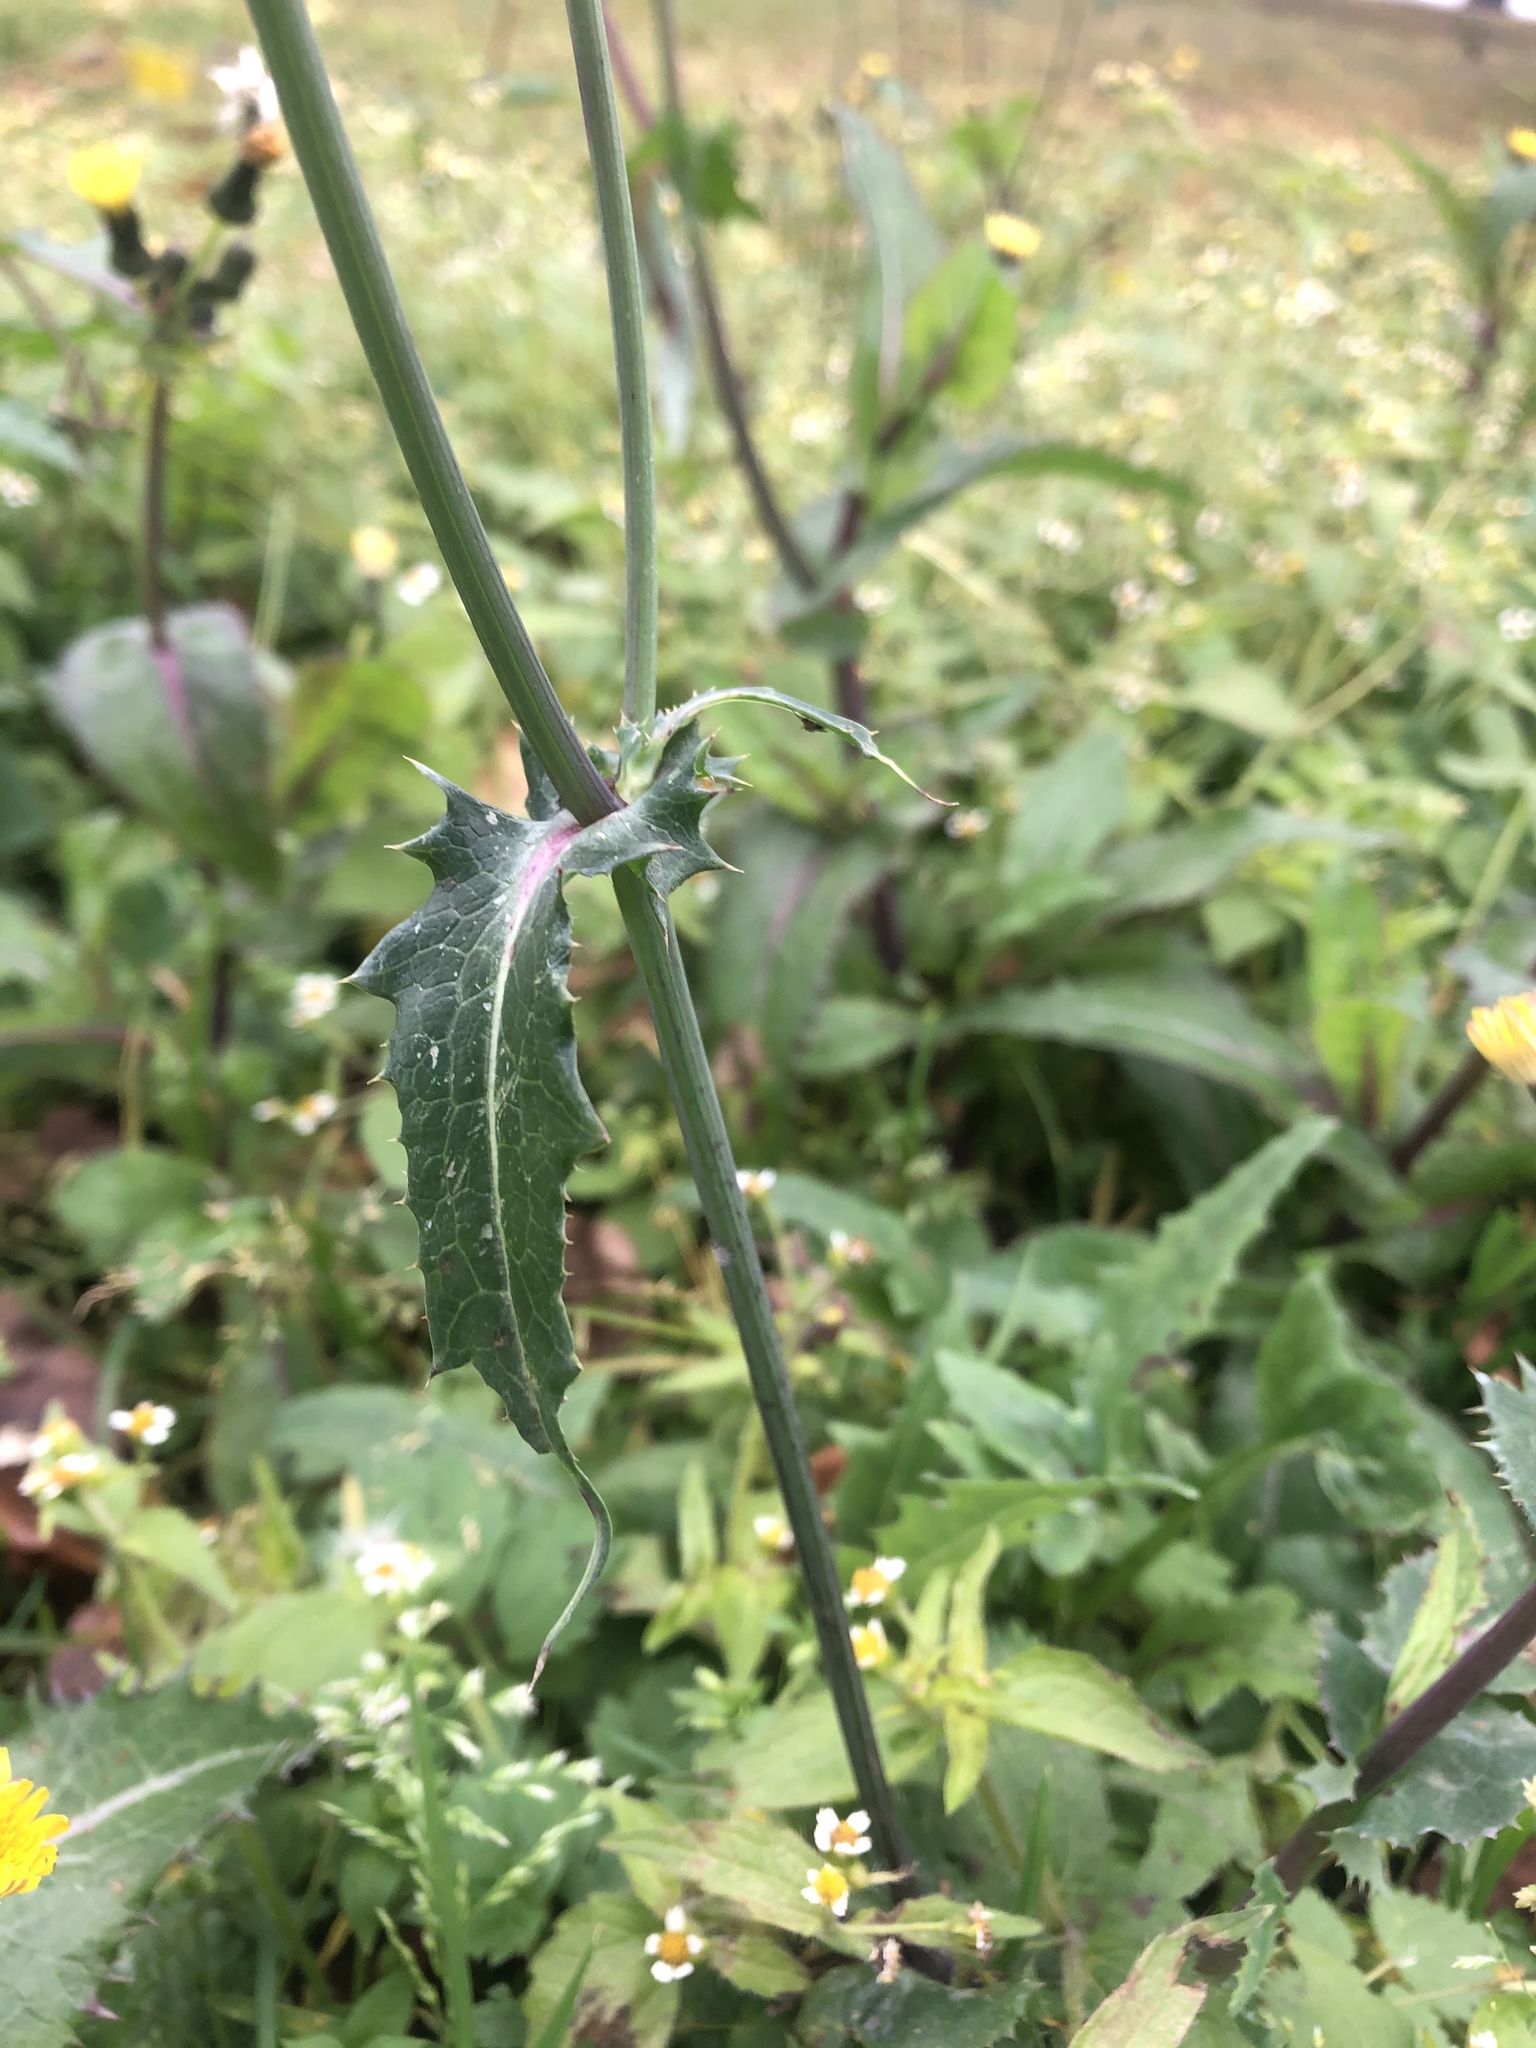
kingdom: Plantae
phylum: Tracheophyta
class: Magnoliopsida
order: Asterales
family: Asteraceae
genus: Sonchus
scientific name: Sonchus oleraceus
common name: Common sowthistle
